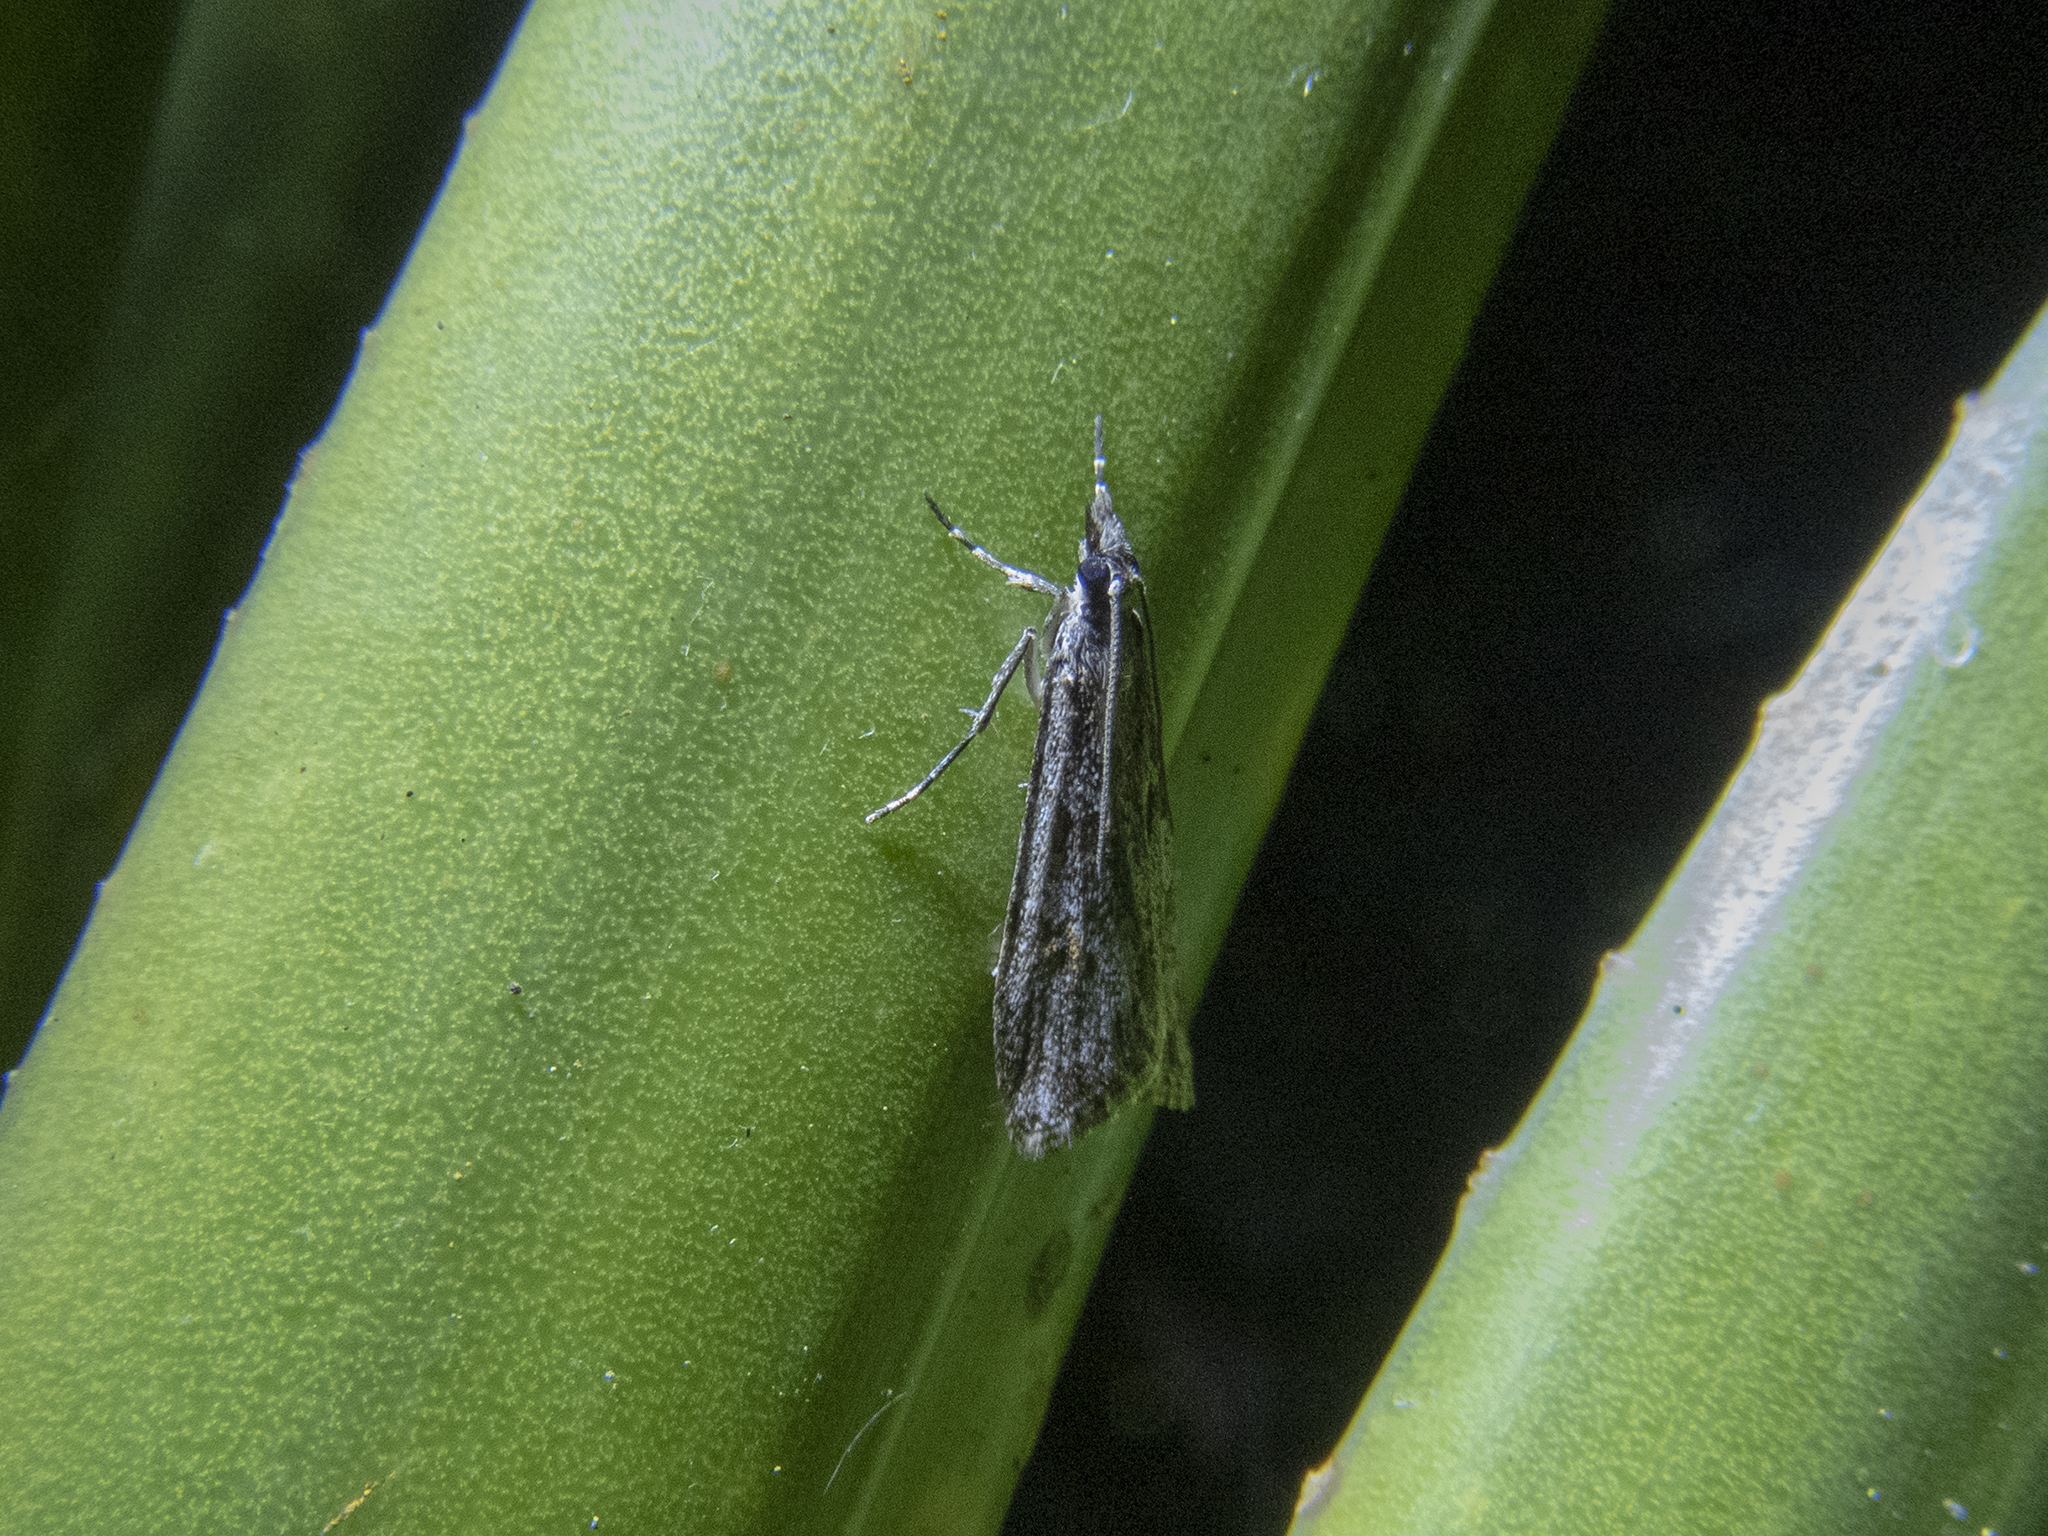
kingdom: Animalia
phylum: Arthropoda
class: Insecta
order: Lepidoptera
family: Crambidae
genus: Scoparia
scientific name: Scoparia chalicodes
